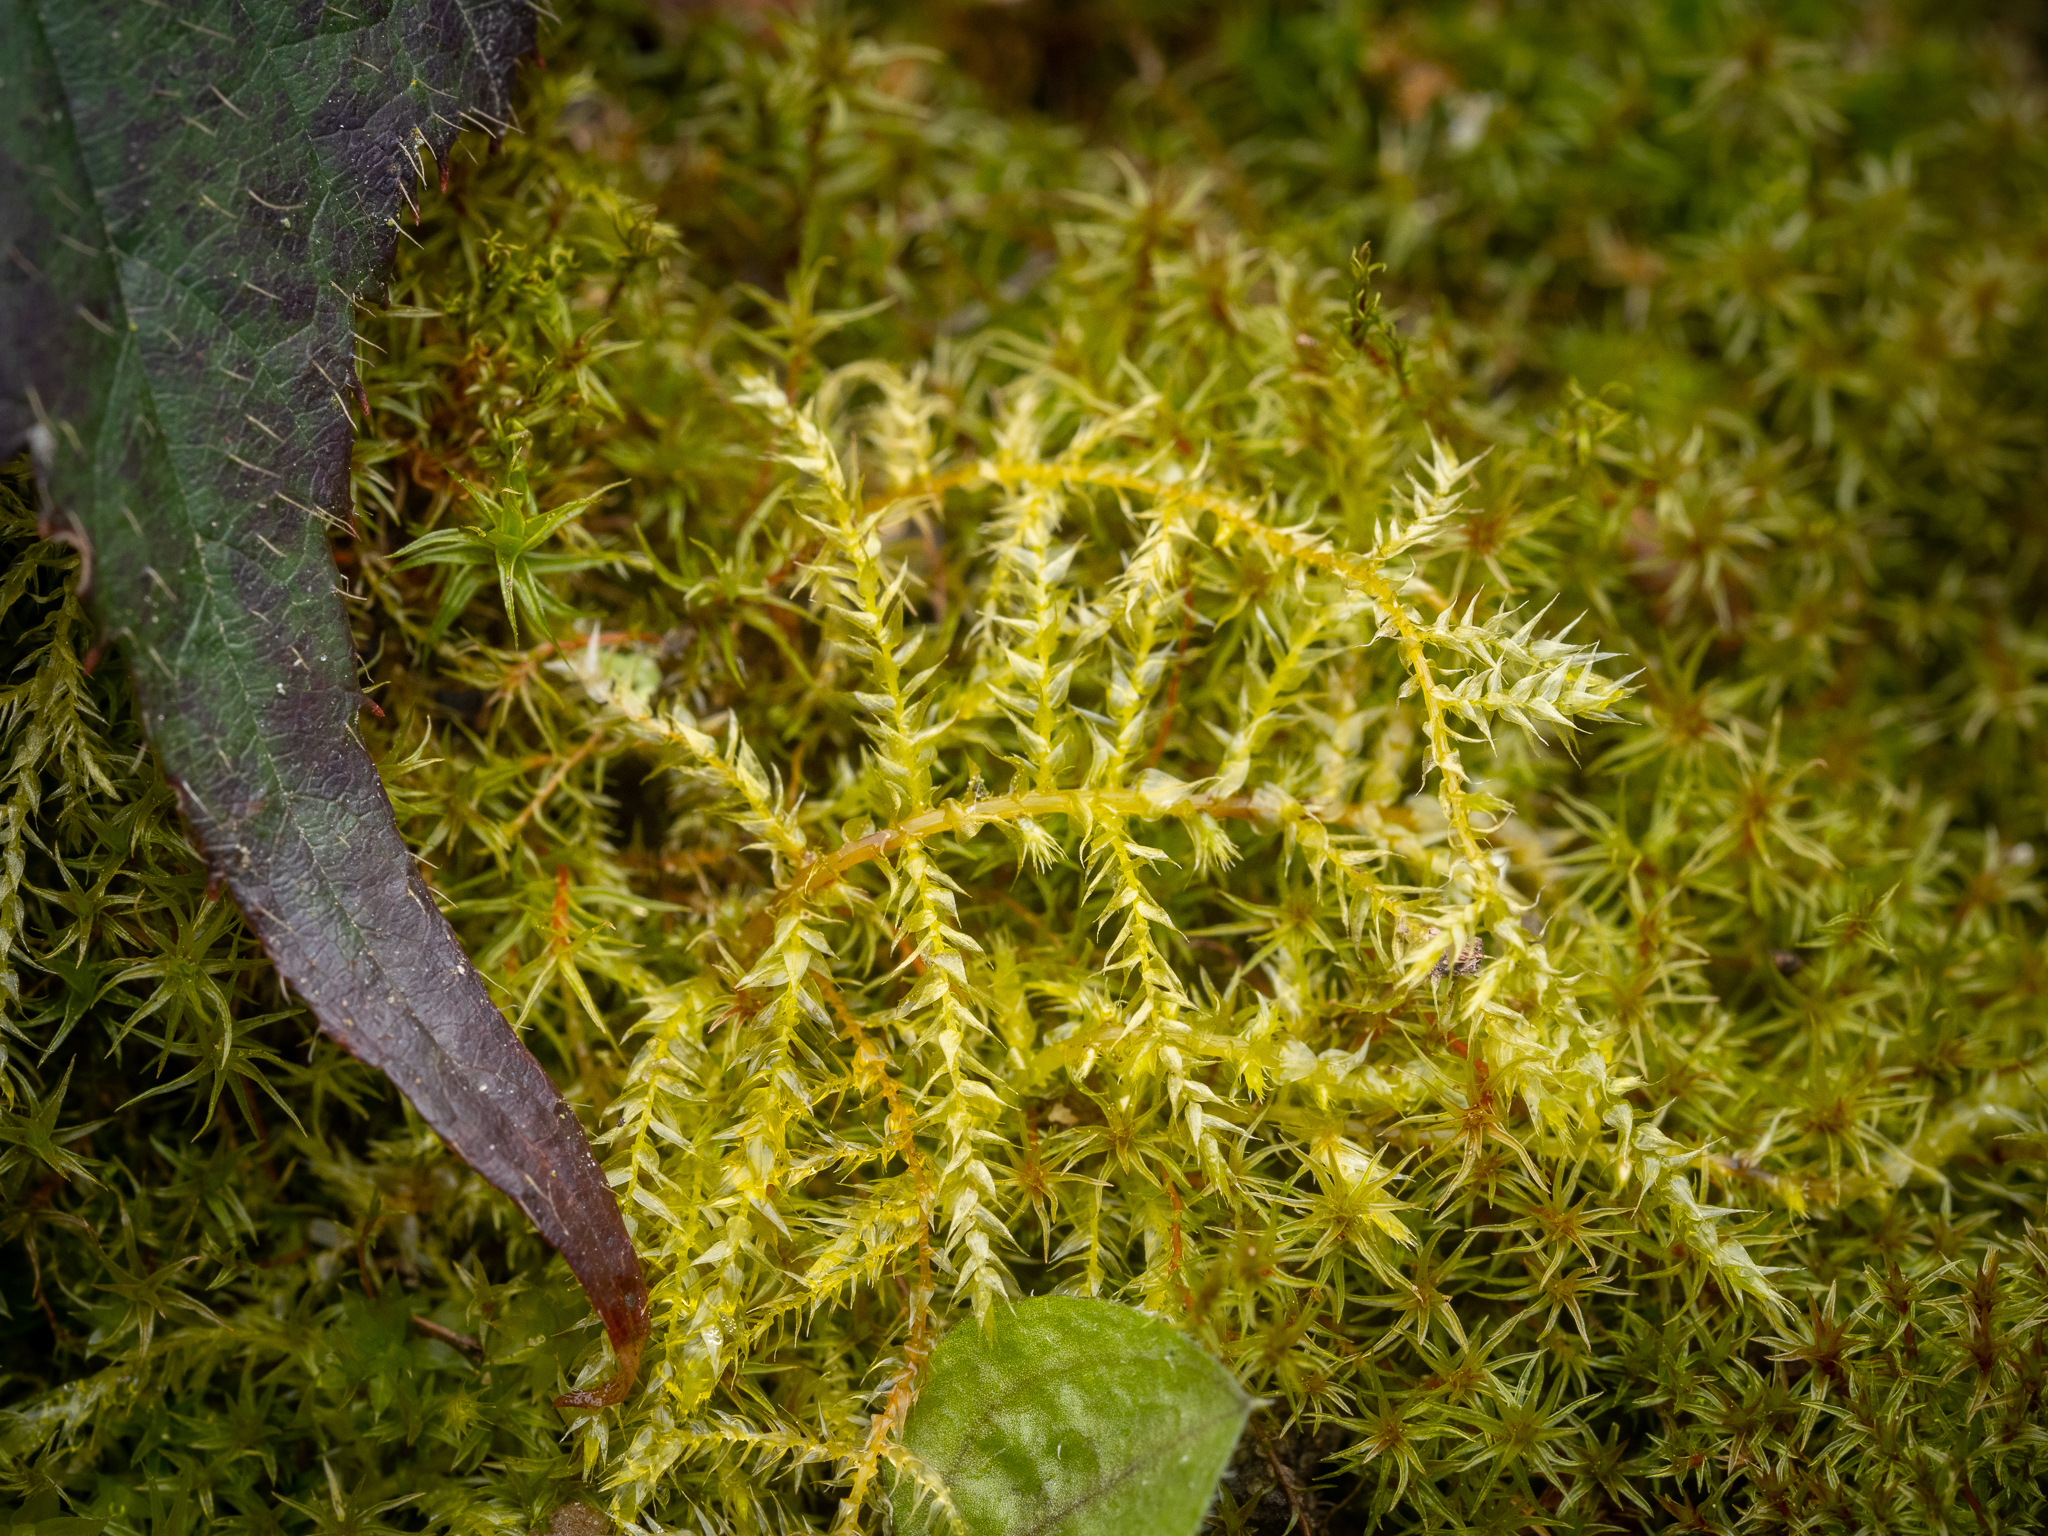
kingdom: Plantae
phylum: Bryophyta
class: Bryopsida
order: Hypnales
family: Brachytheciaceae
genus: Kindbergia
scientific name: Kindbergia praelonga
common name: Slender beaked moss
